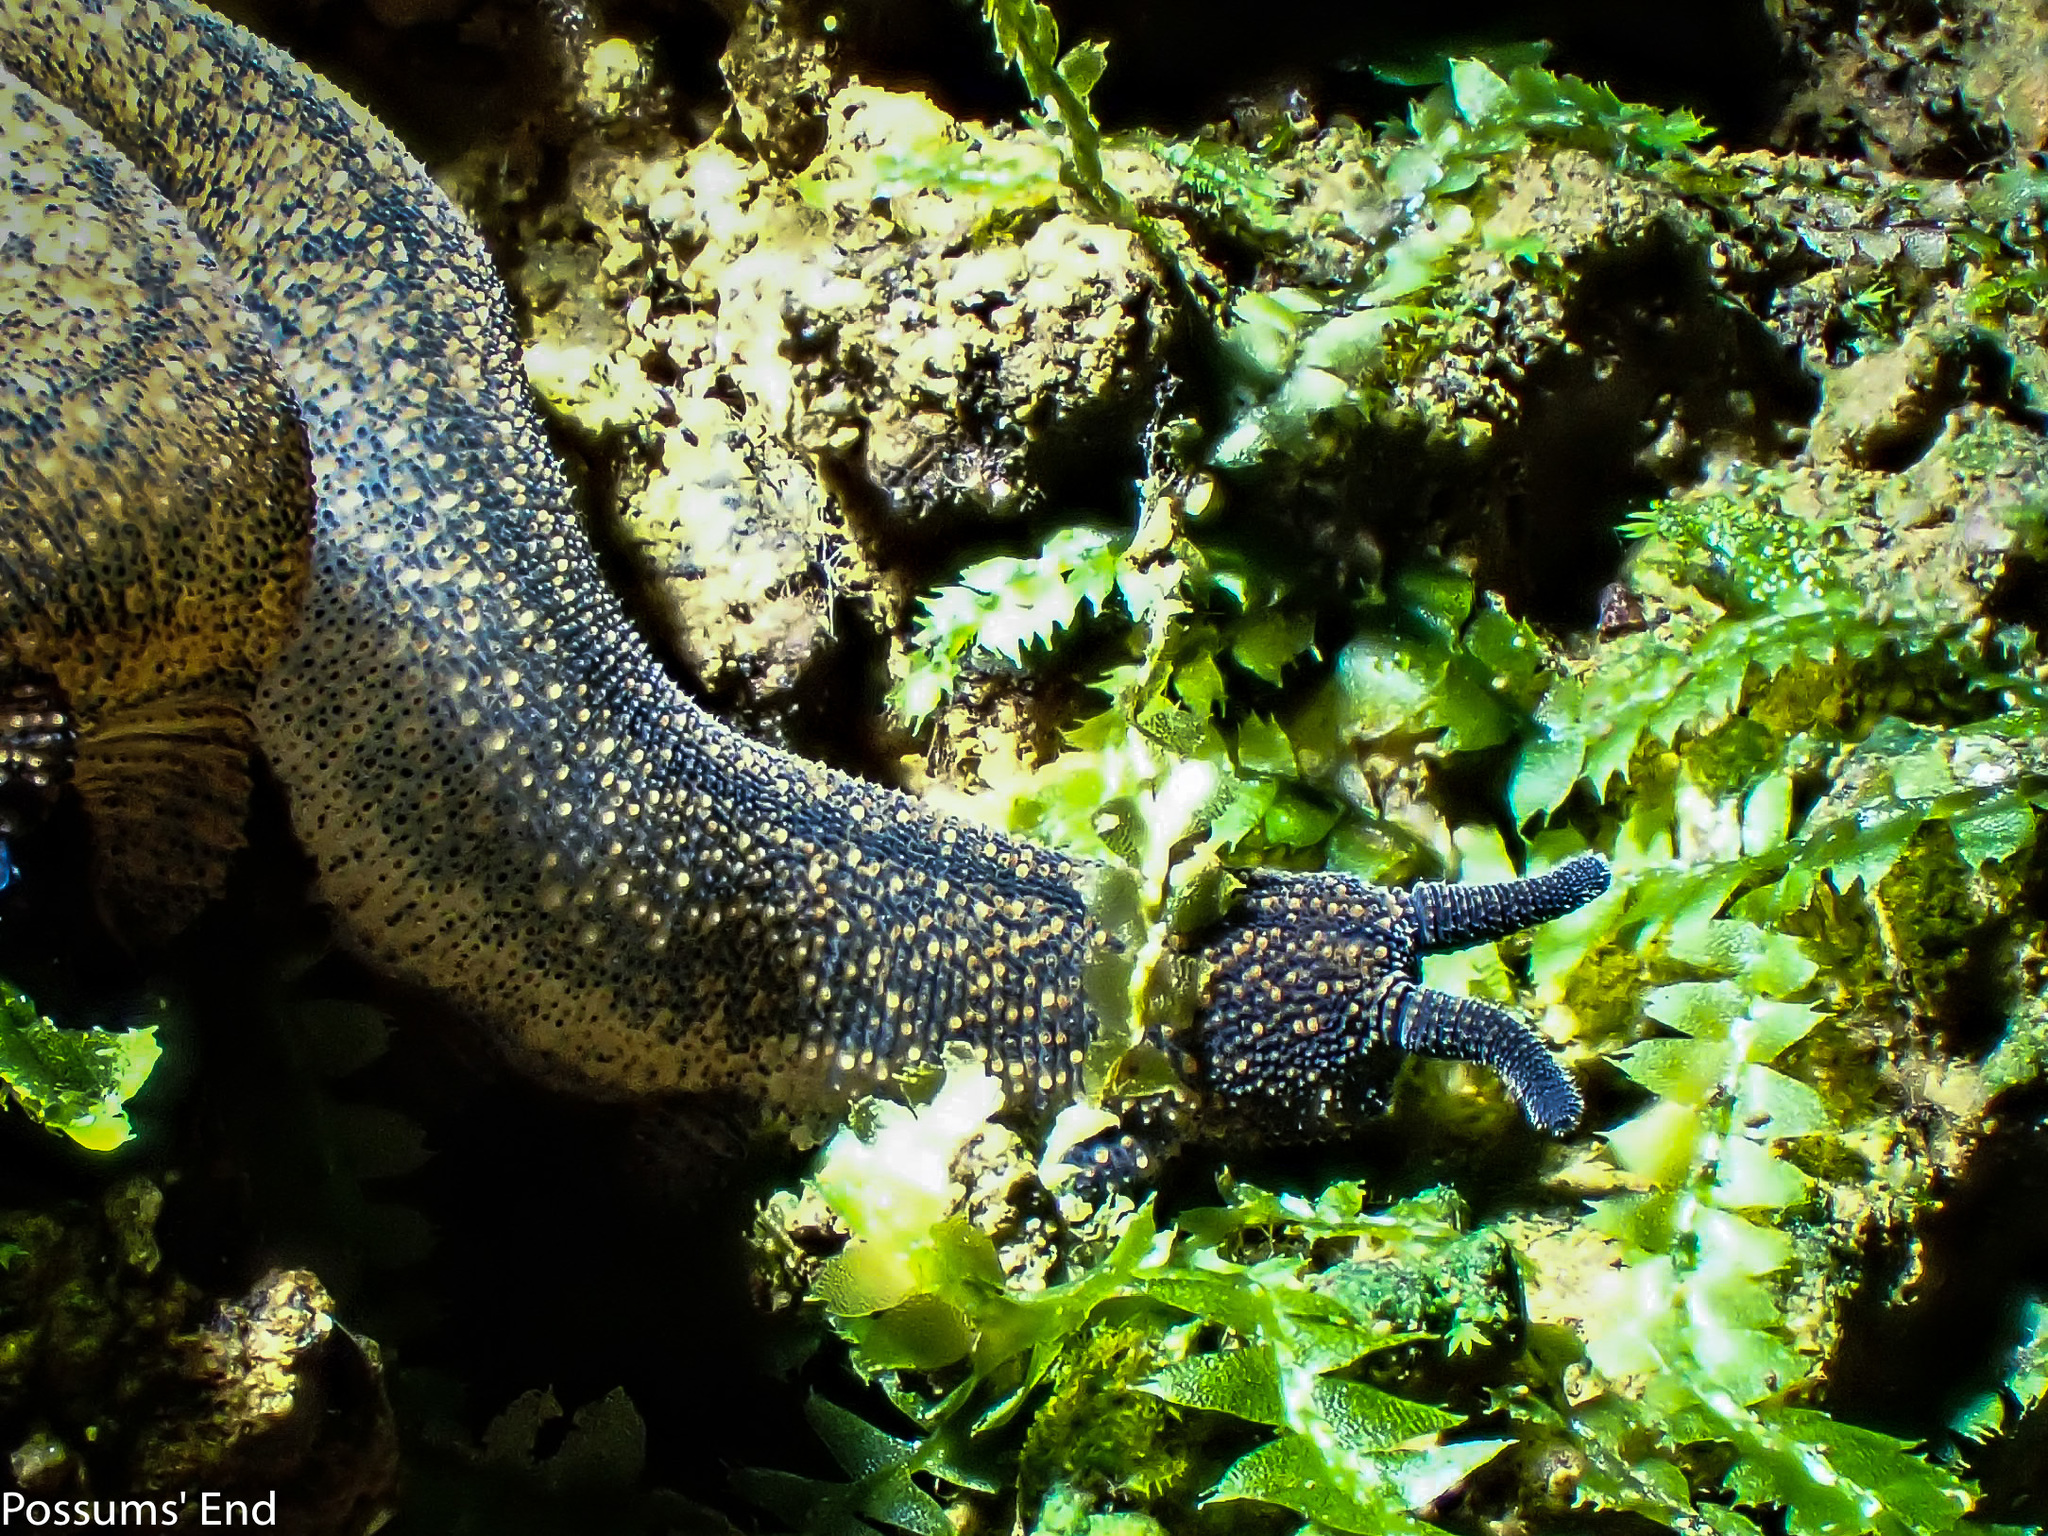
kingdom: Animalia
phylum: Onychophora
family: Peripatopsidae
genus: Peripatoides
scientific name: Peripatoides
